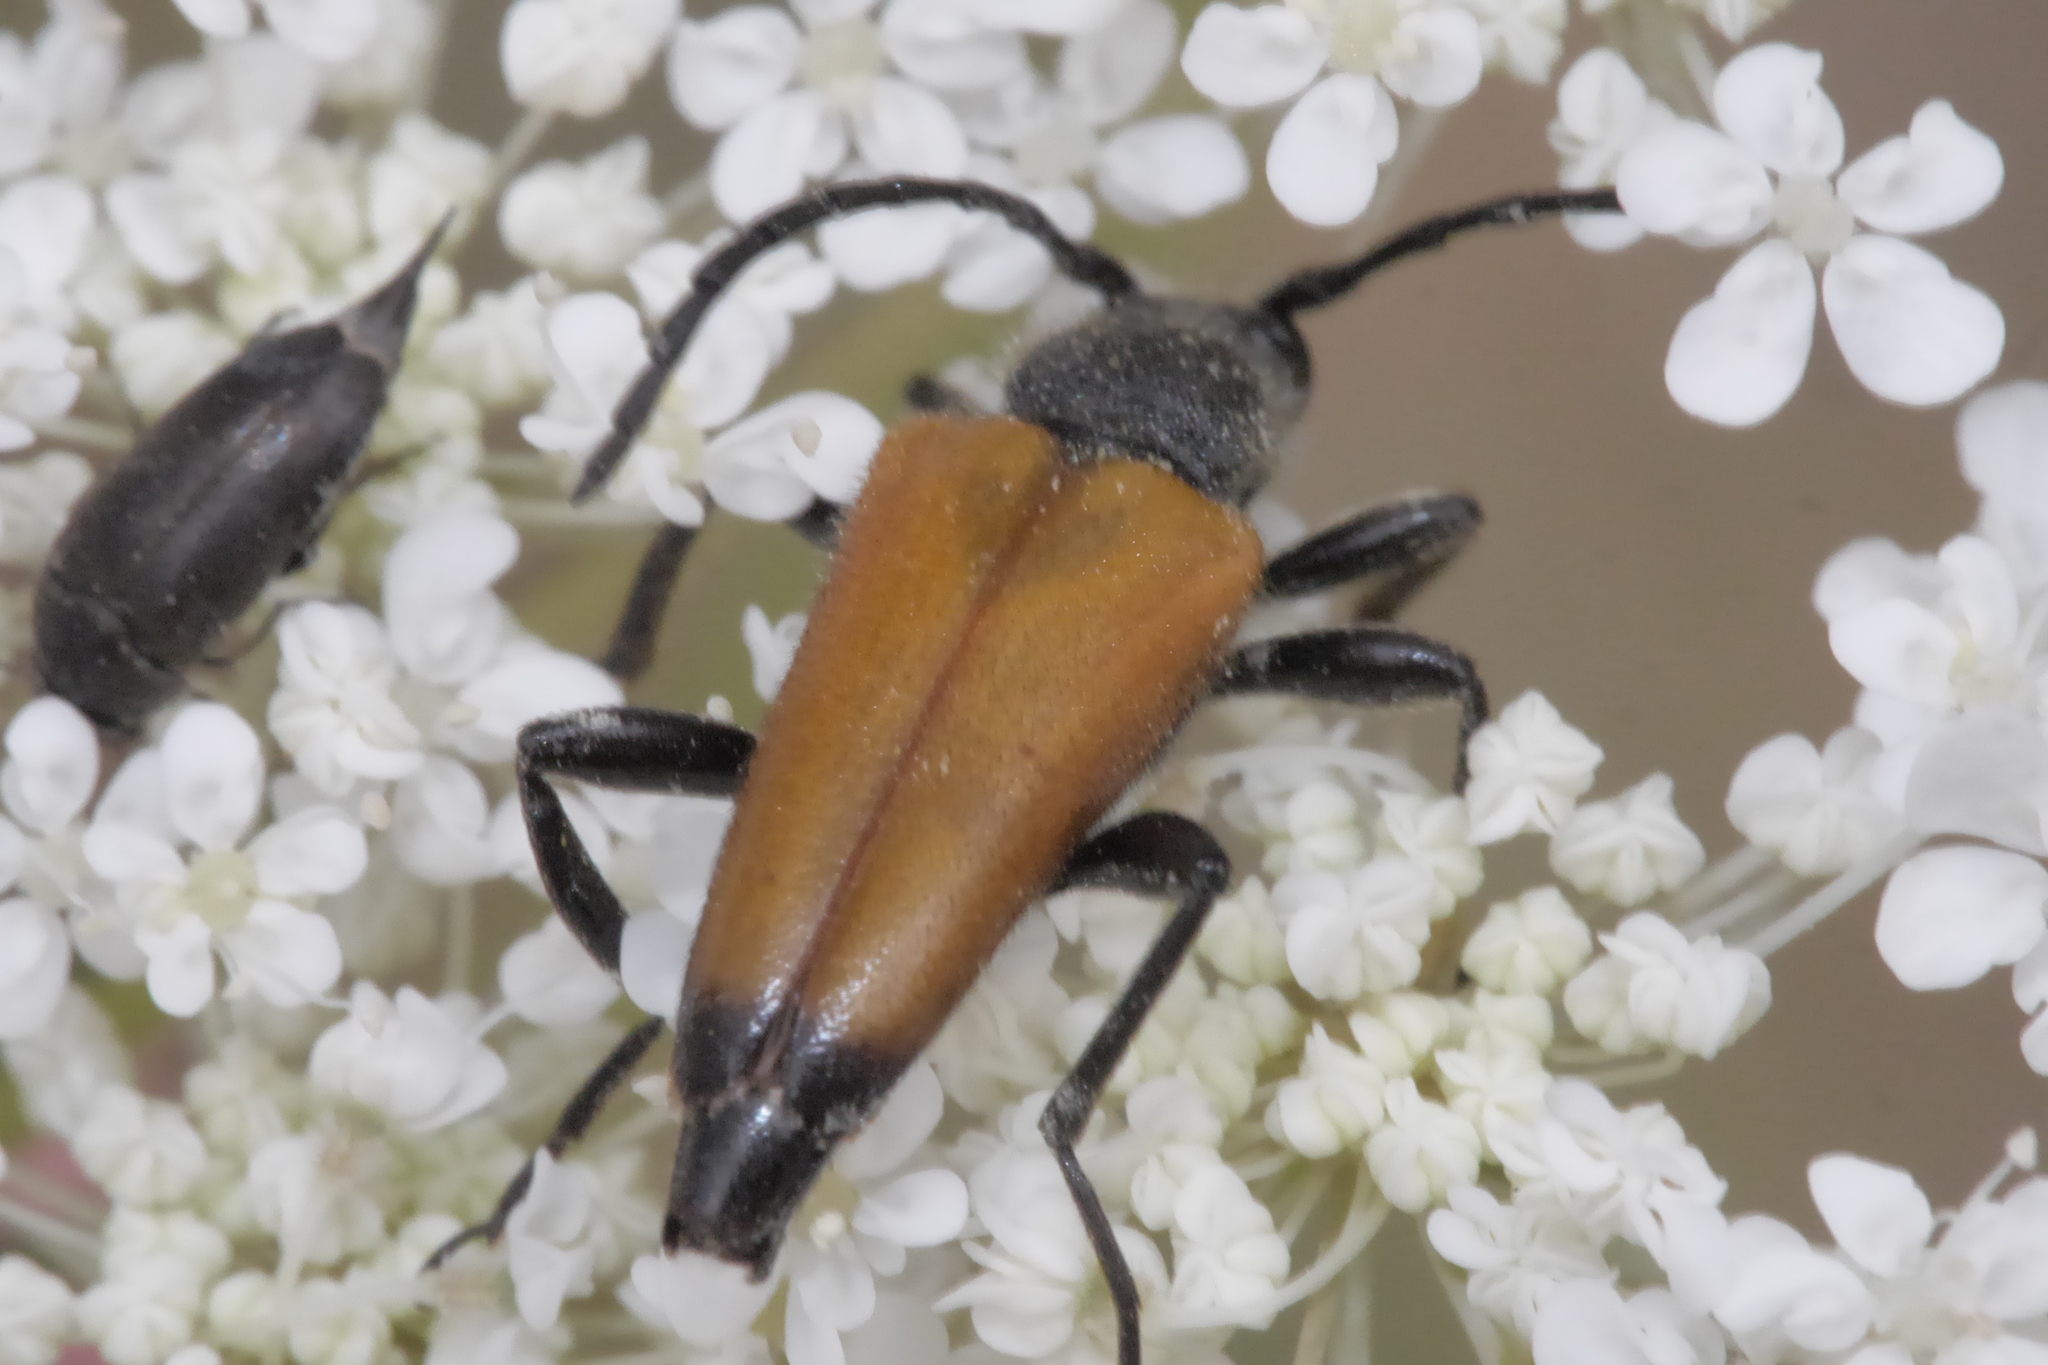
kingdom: Animalia
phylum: Arthropoda
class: Insecta
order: Coleoptera
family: Cerambycidae
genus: Paracorymbia
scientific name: Paracorymbia fulva
